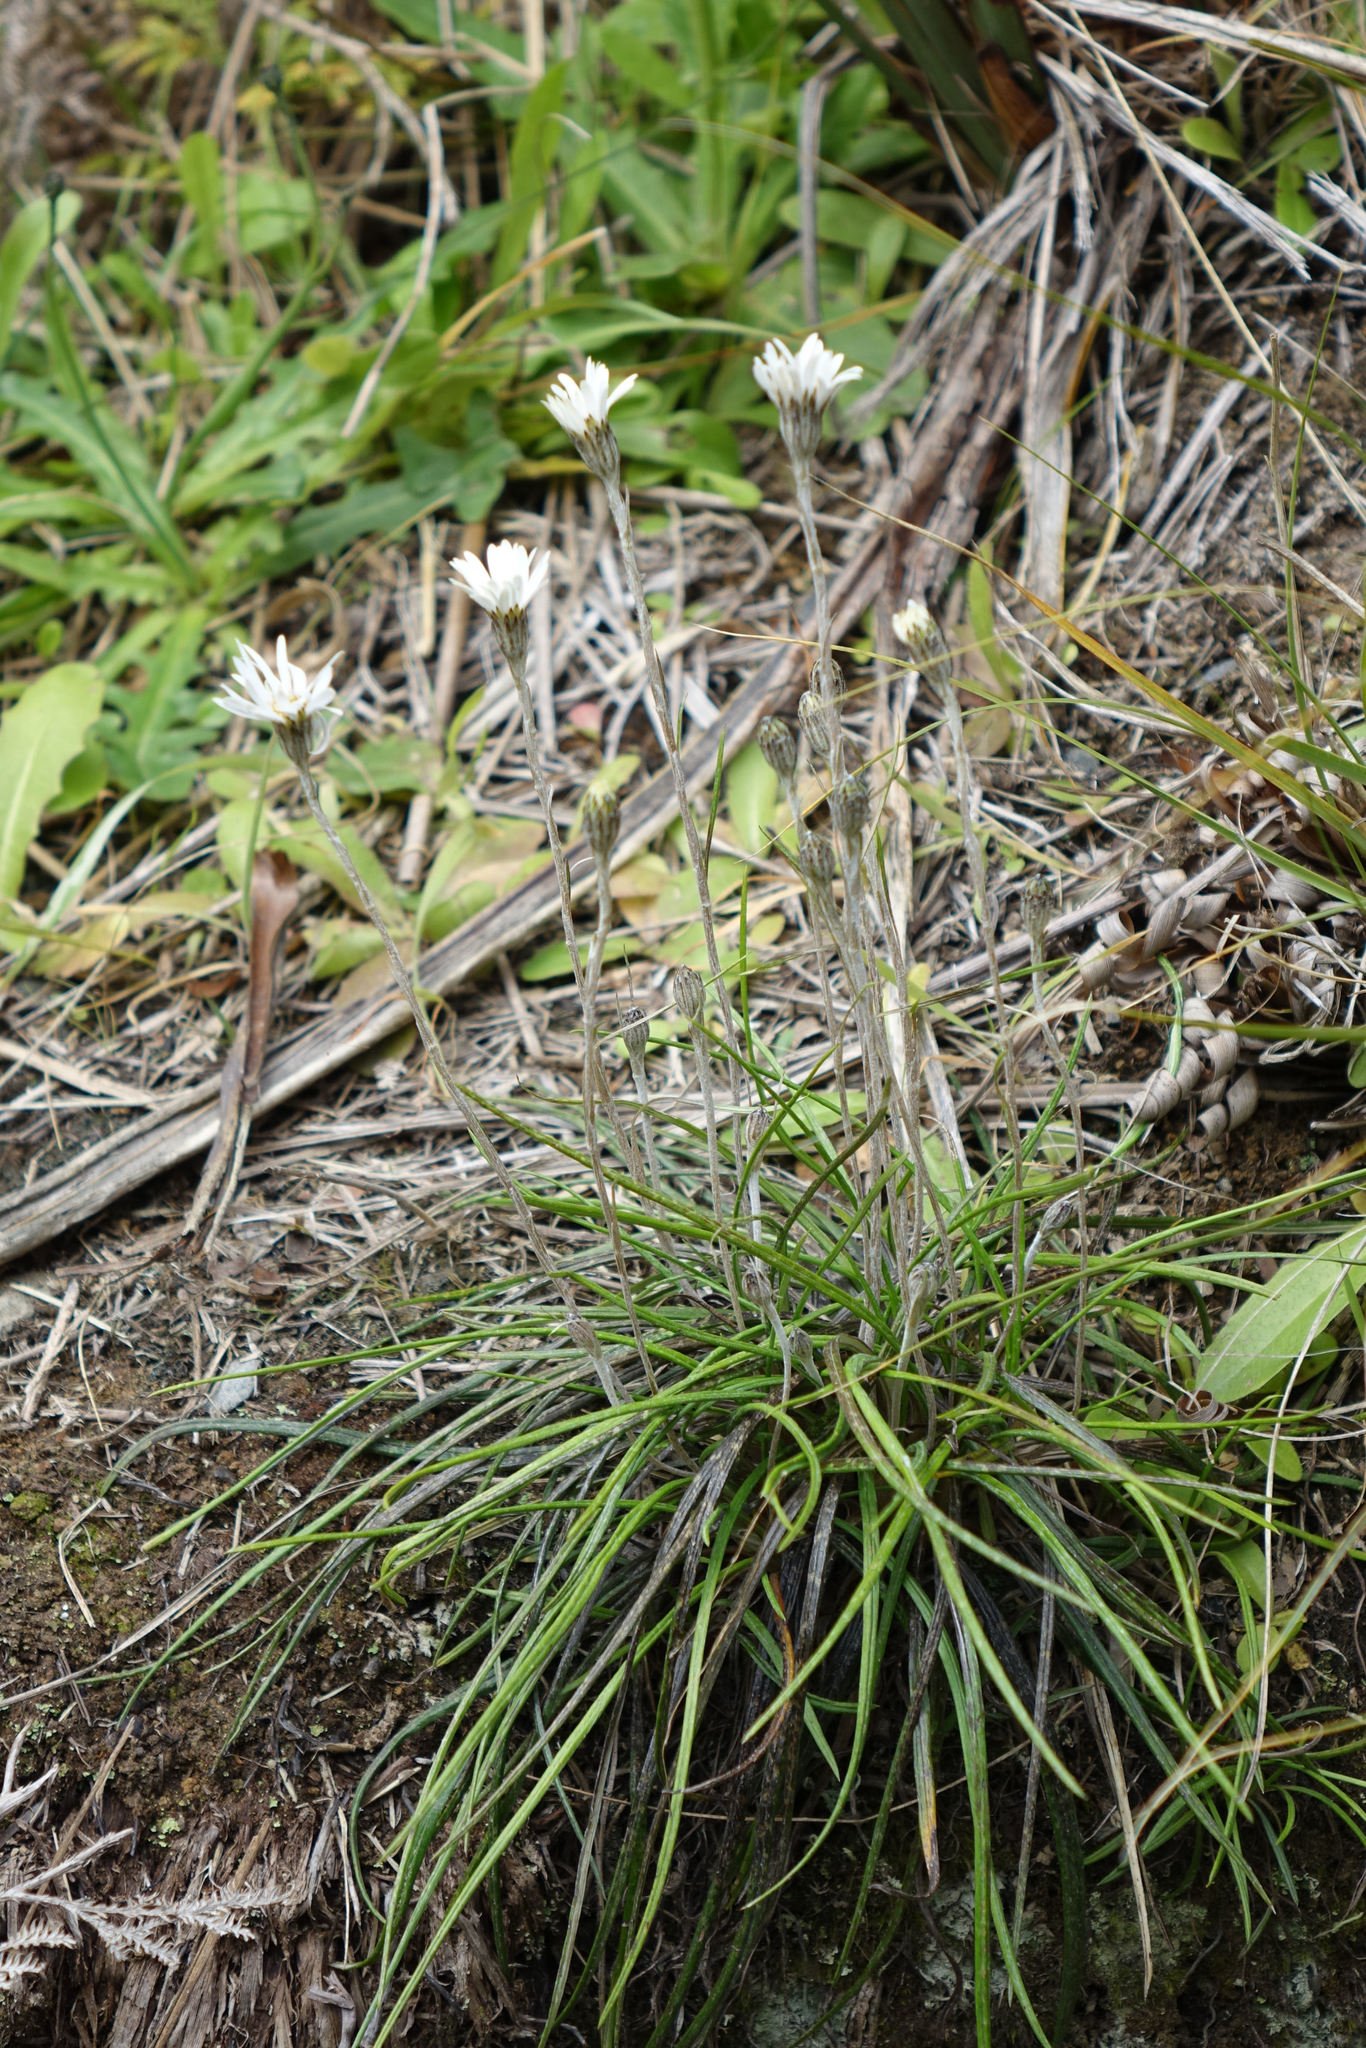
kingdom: Plantae
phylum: Tracheophyta
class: Magnoliopsida
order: Asterales
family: Asteraceae
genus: Celmisia
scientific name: Celmisia gracilenta
